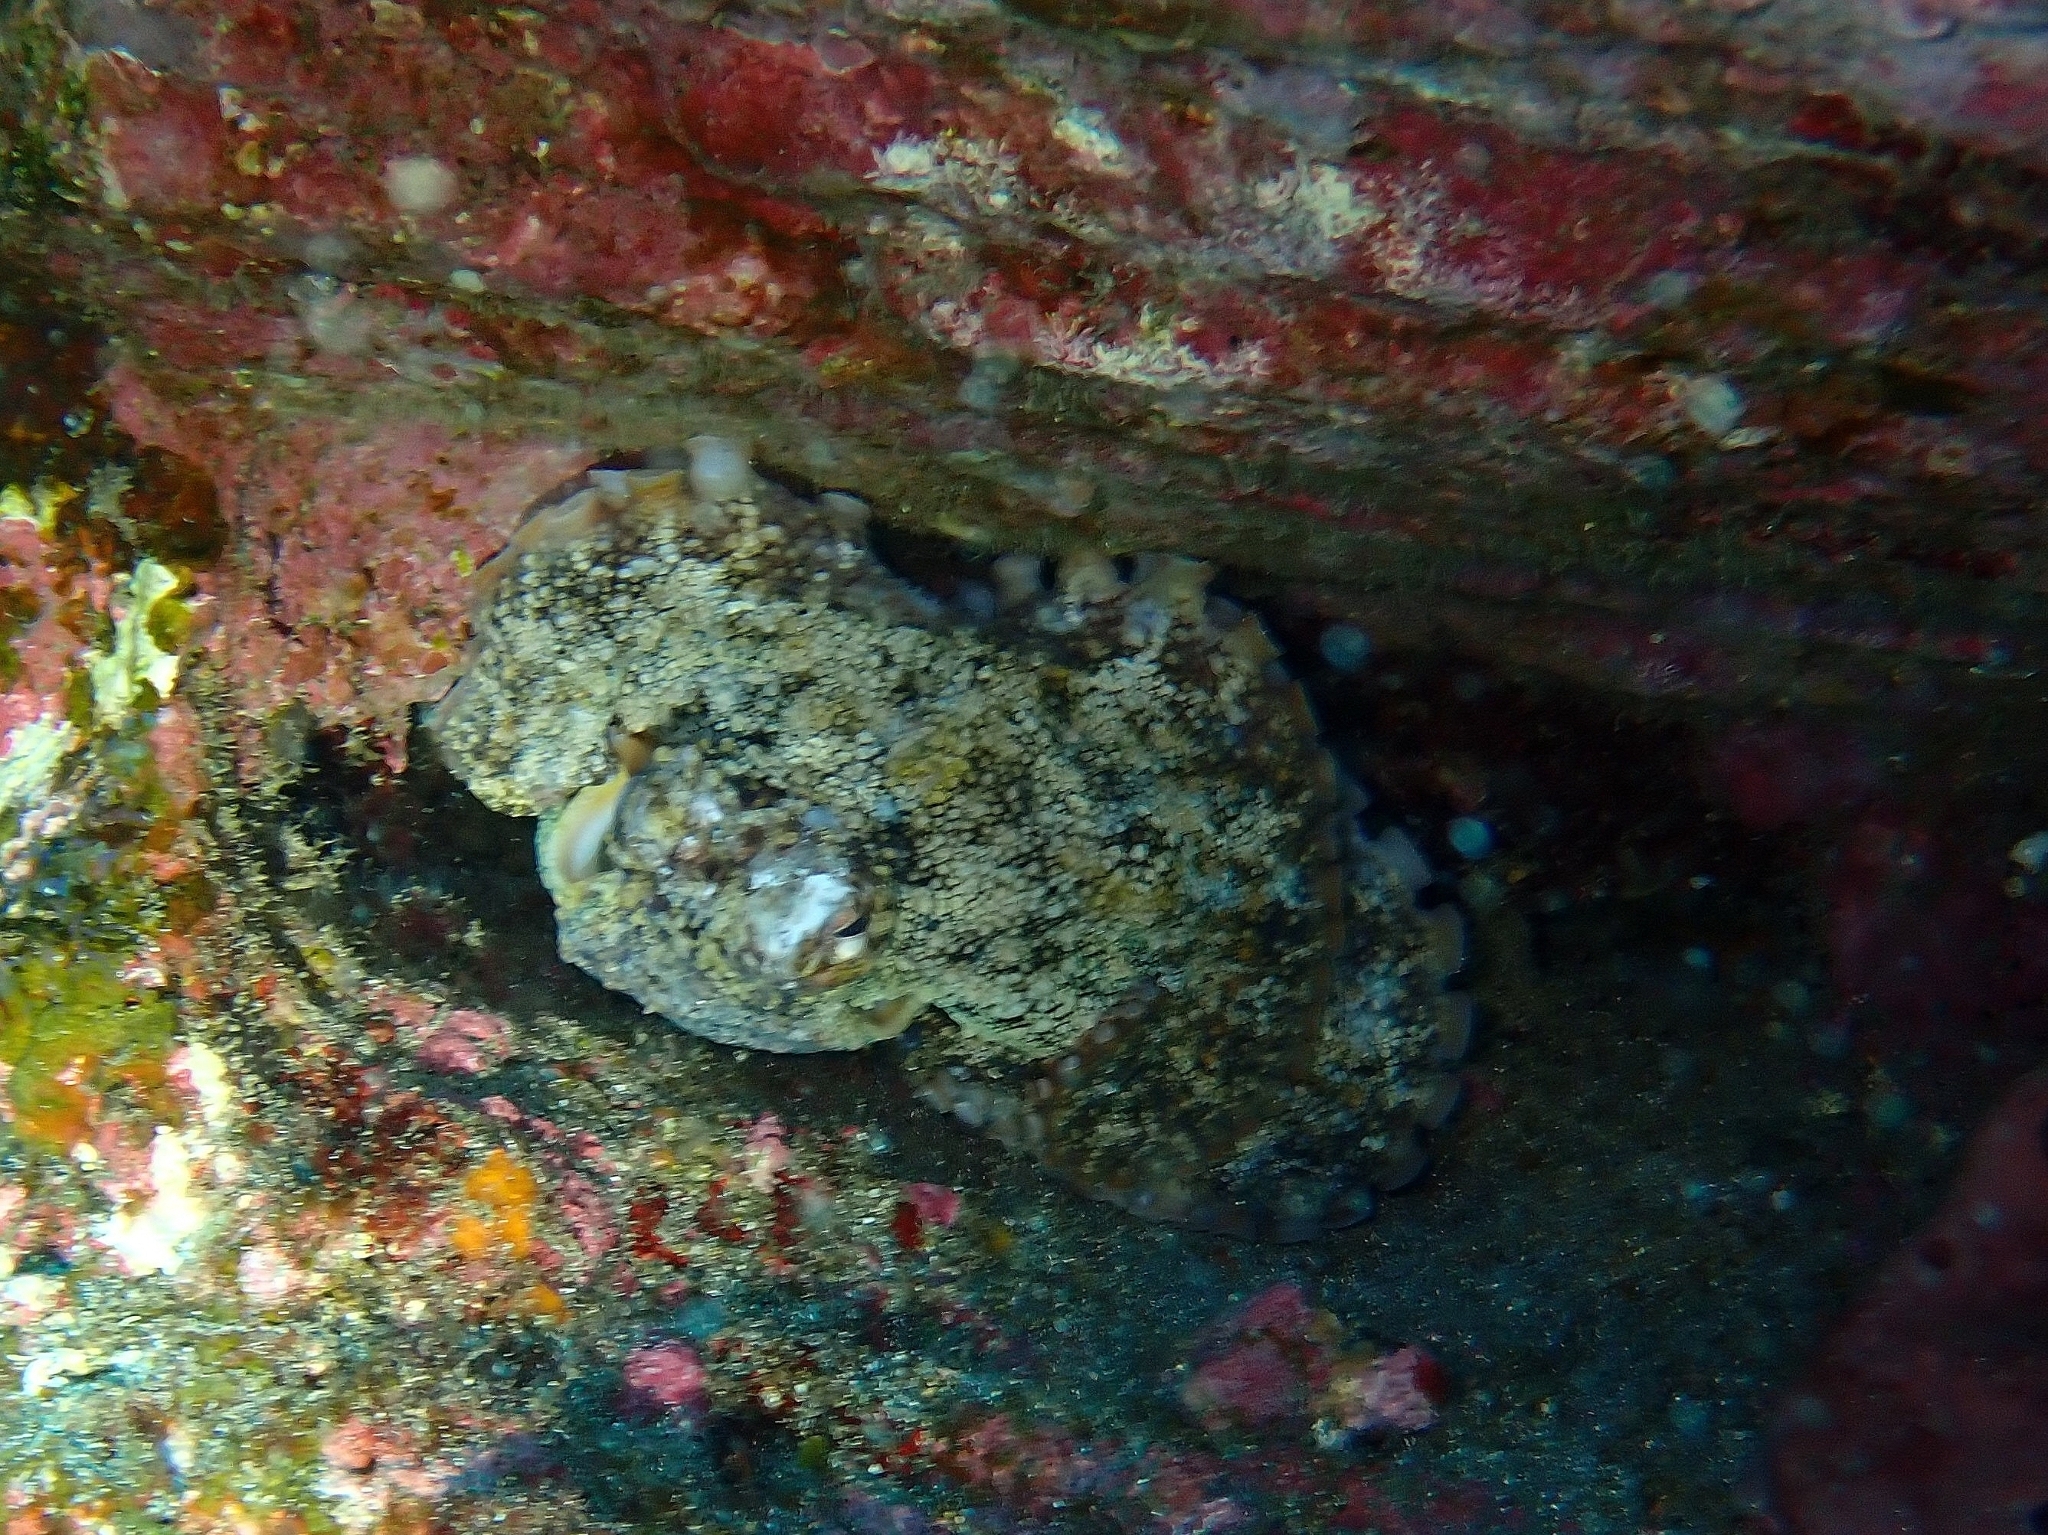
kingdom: Animalia
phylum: Mollusca
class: Cephalopoda
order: Octopoda
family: Octopodidae
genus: Octopus
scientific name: Octopus vulgaris
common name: Common octopus
